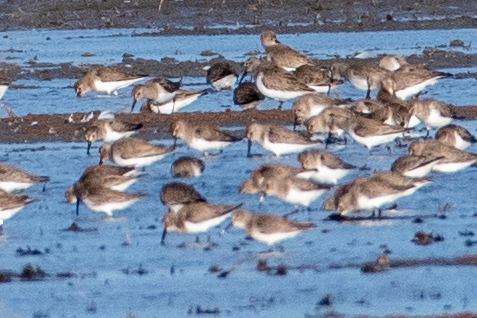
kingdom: Animalia
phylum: Chordata
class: Aves
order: Charadriiformes
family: Scolopacidae
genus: Calidris
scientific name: Calidris alpina
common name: Dunlin
